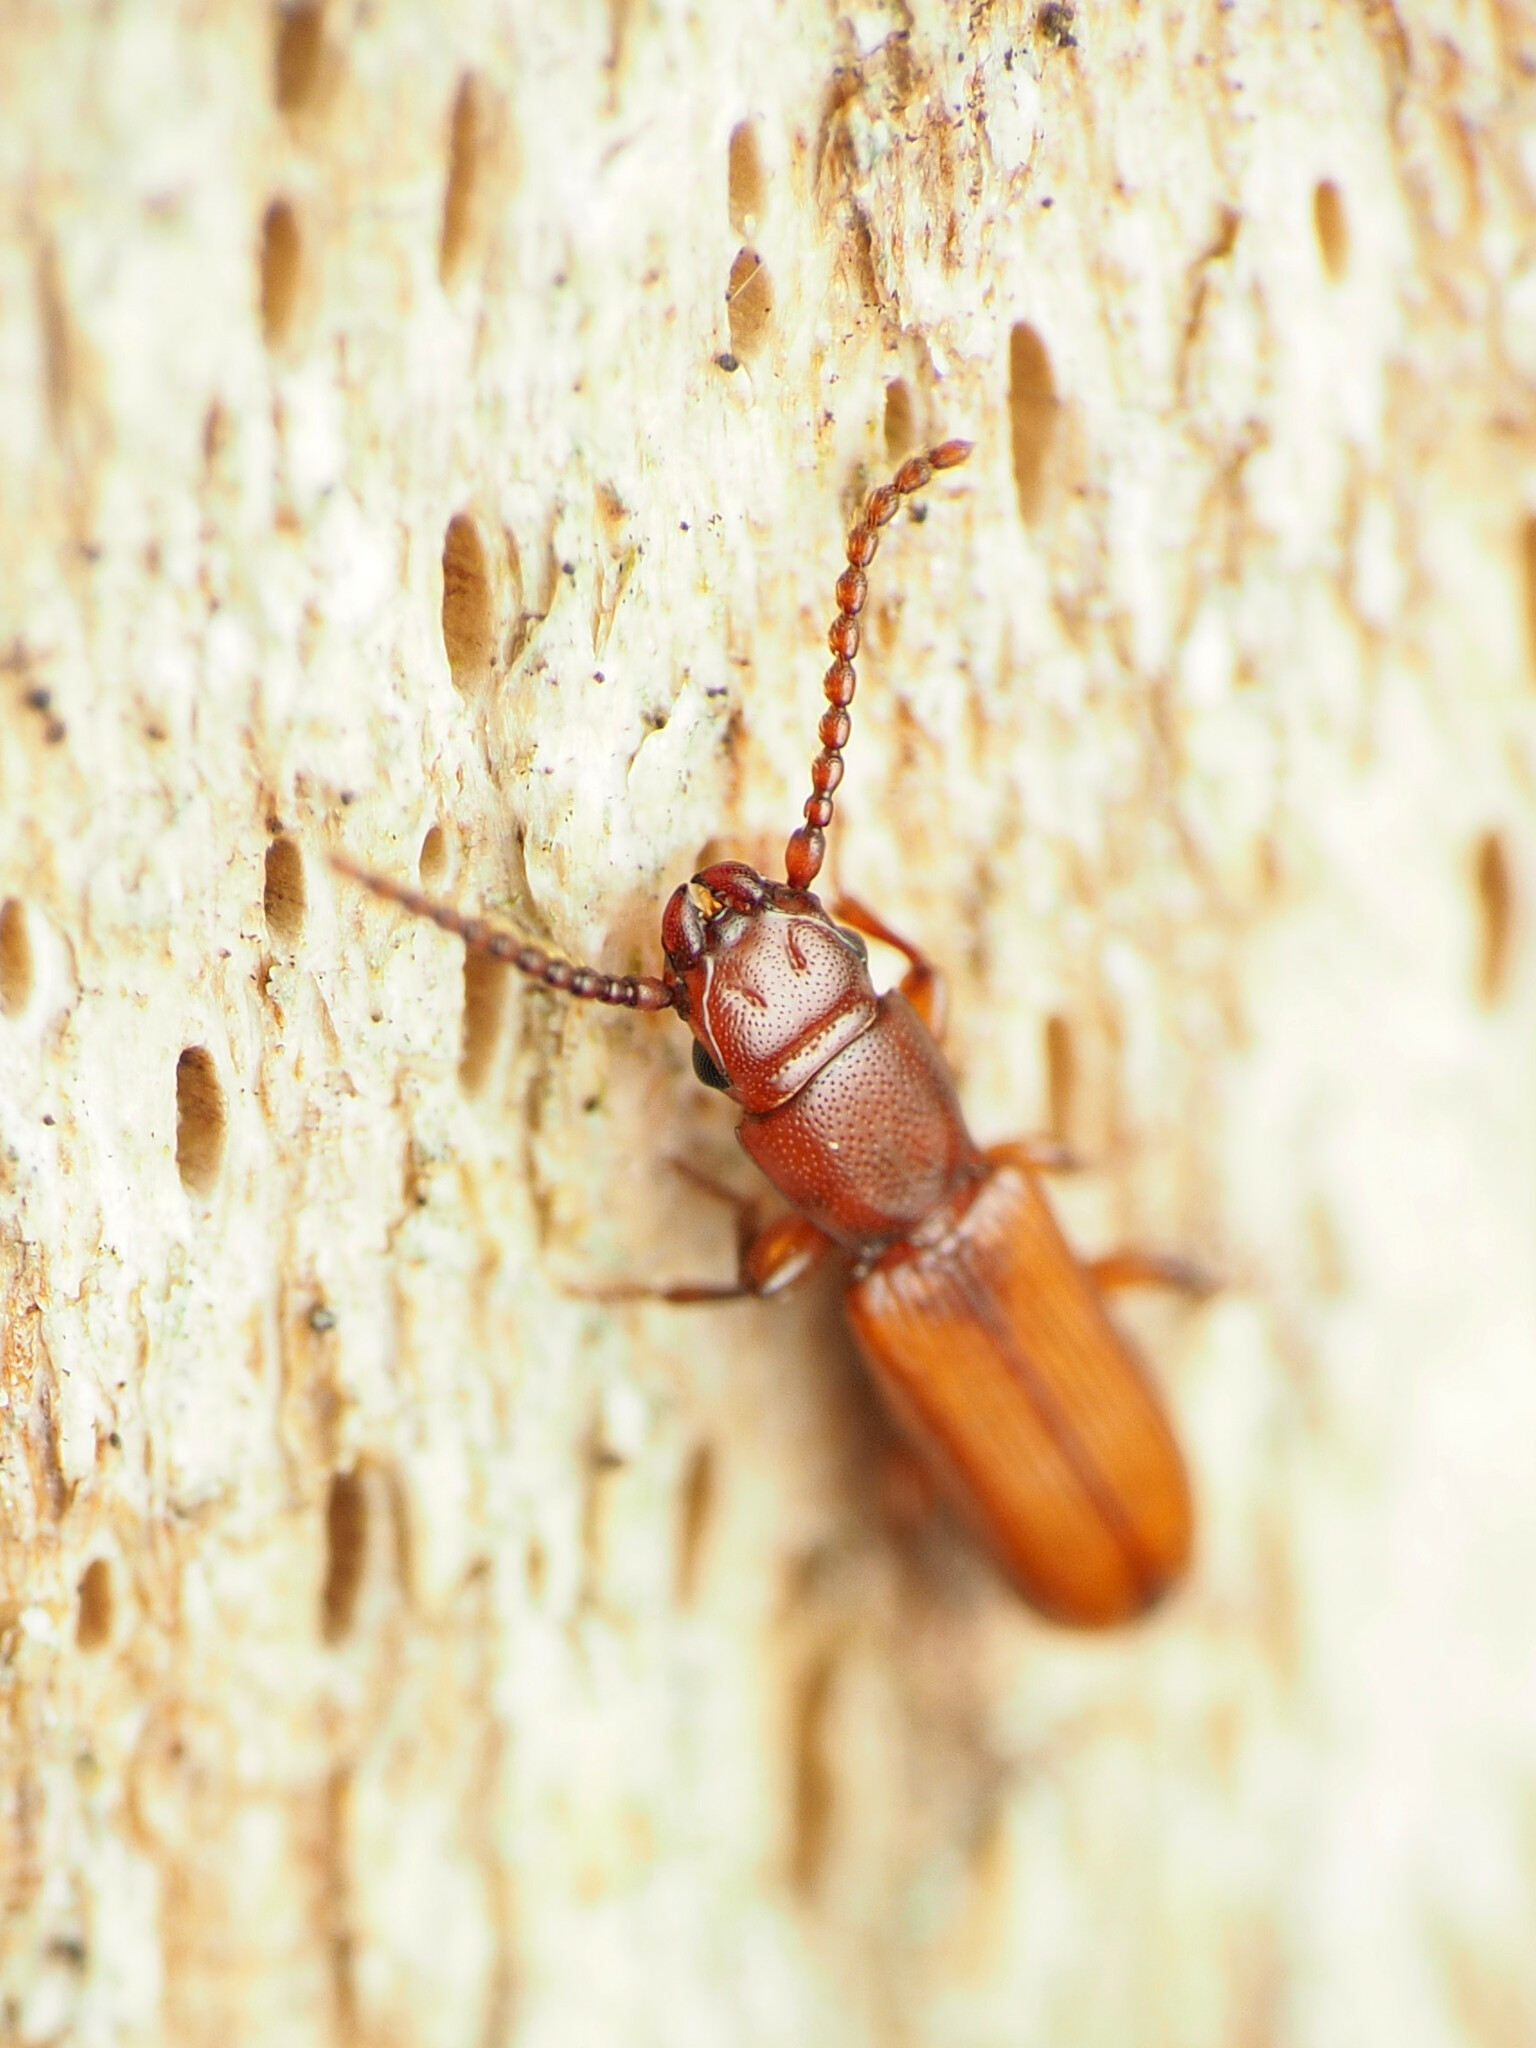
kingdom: Animalia
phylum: Arthropoda
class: Insecta
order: Coleoptera
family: Passandridae
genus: Catogenus
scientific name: Catogenus rufus
